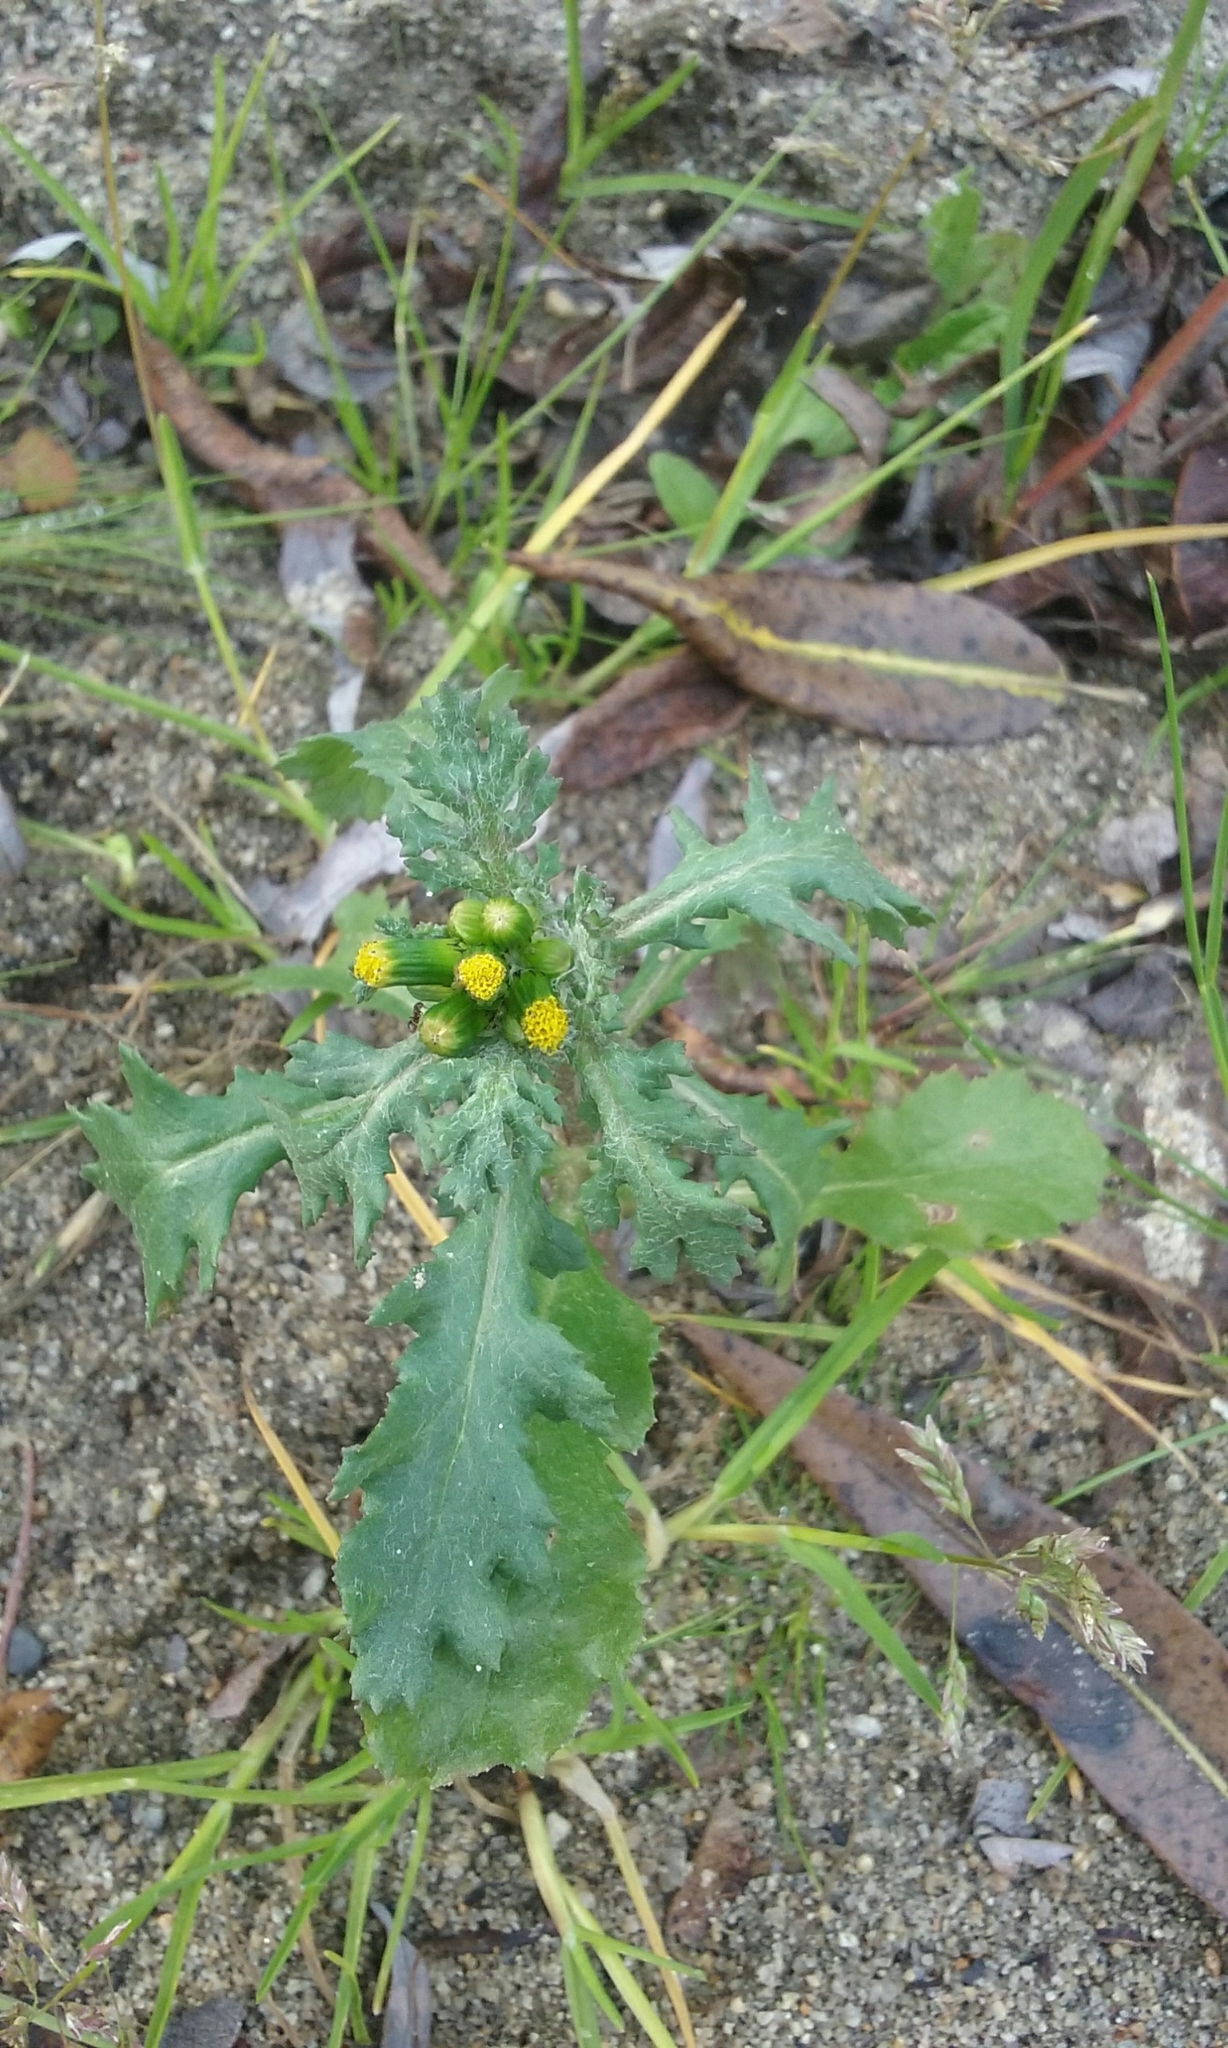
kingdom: Plantae
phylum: Tracheophyta
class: Magnoliopsida
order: Asterales
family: Asteraceae
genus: Senecio
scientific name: Senecio vulgaris
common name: Old-man-in-the-spring
